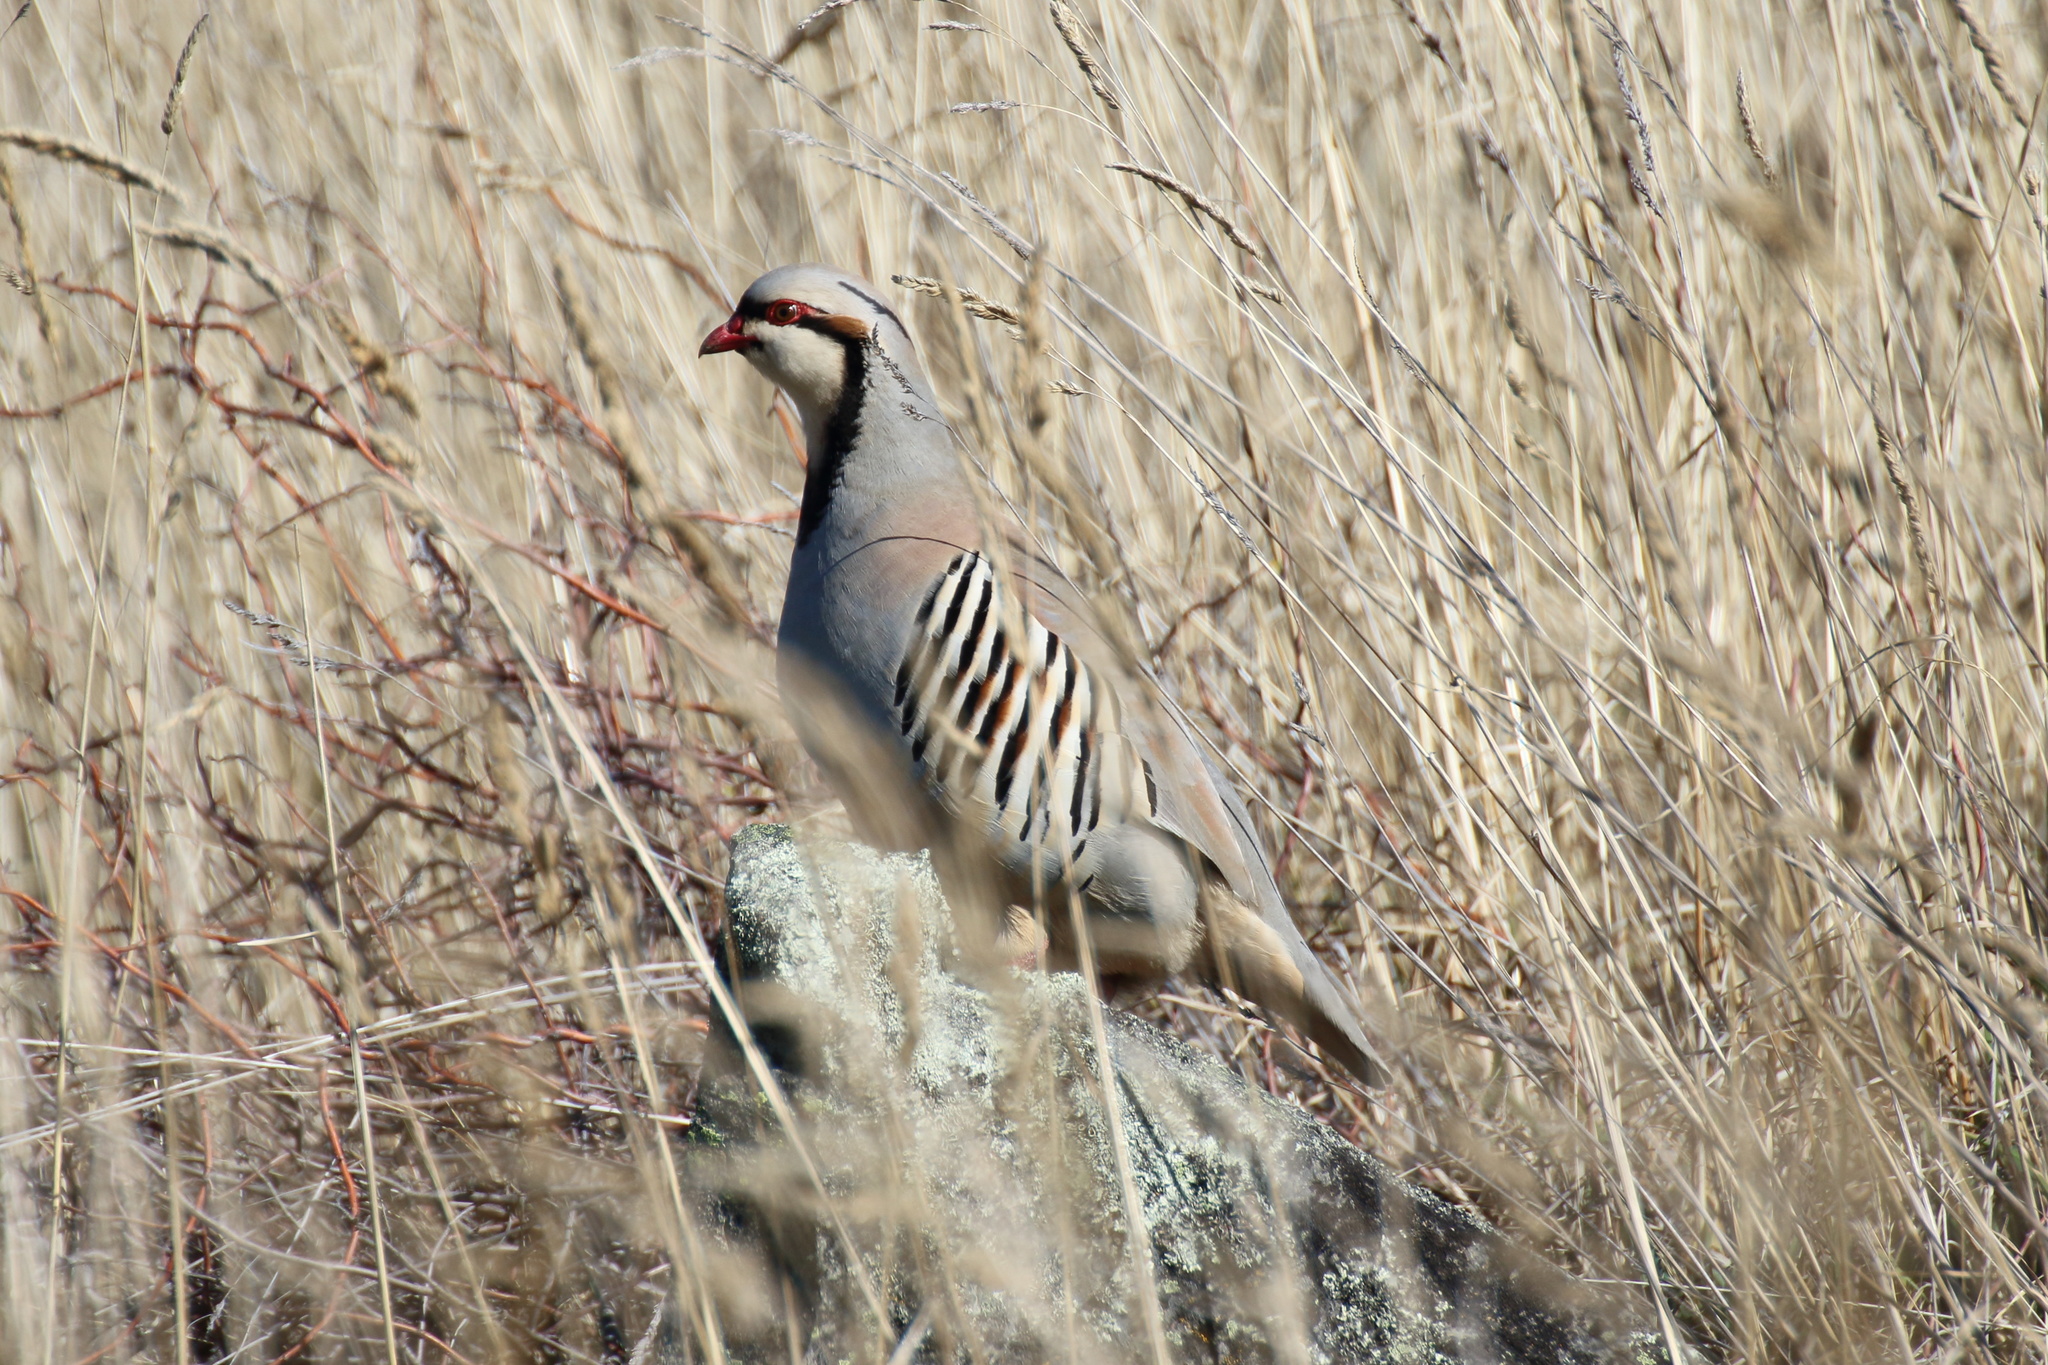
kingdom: Animalia
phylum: Chordata
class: Aves
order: Galliformes
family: Phasianidae
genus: Alectoris
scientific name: Alectoris chukar
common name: Chukar
